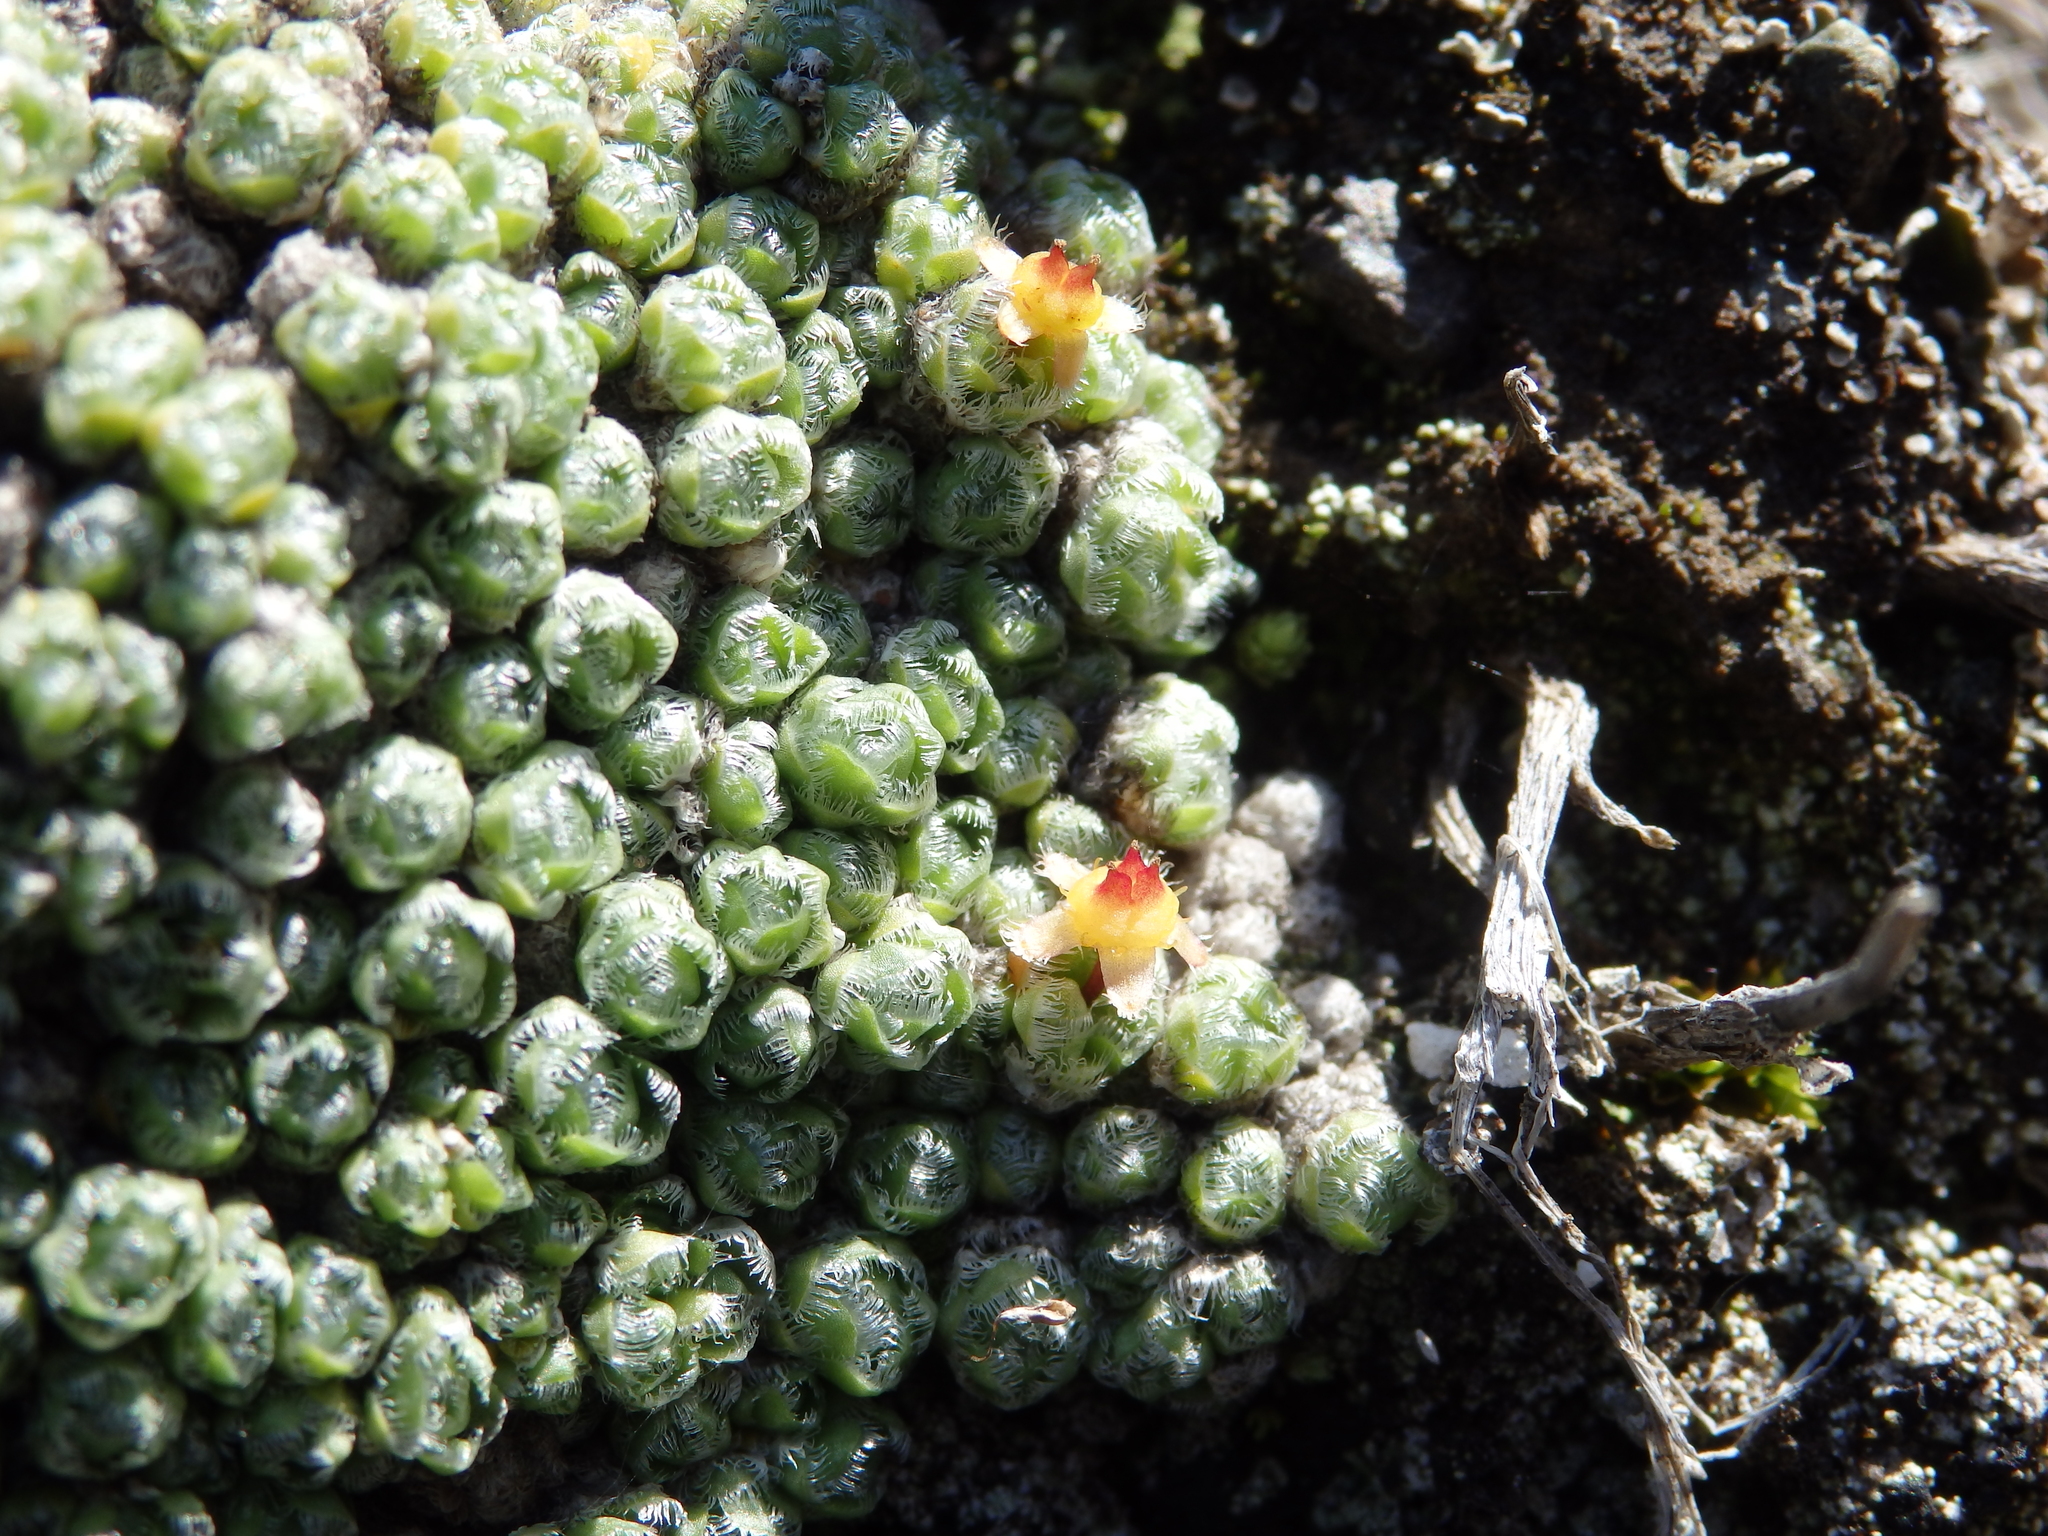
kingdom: Plantae
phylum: Tracheophyta
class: Magnoliopsida
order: Saxifragales
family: Saxifragaceae
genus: Saxifraga
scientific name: Saxifraga eschscholtzii
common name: Eschscholtz's saxifrage
